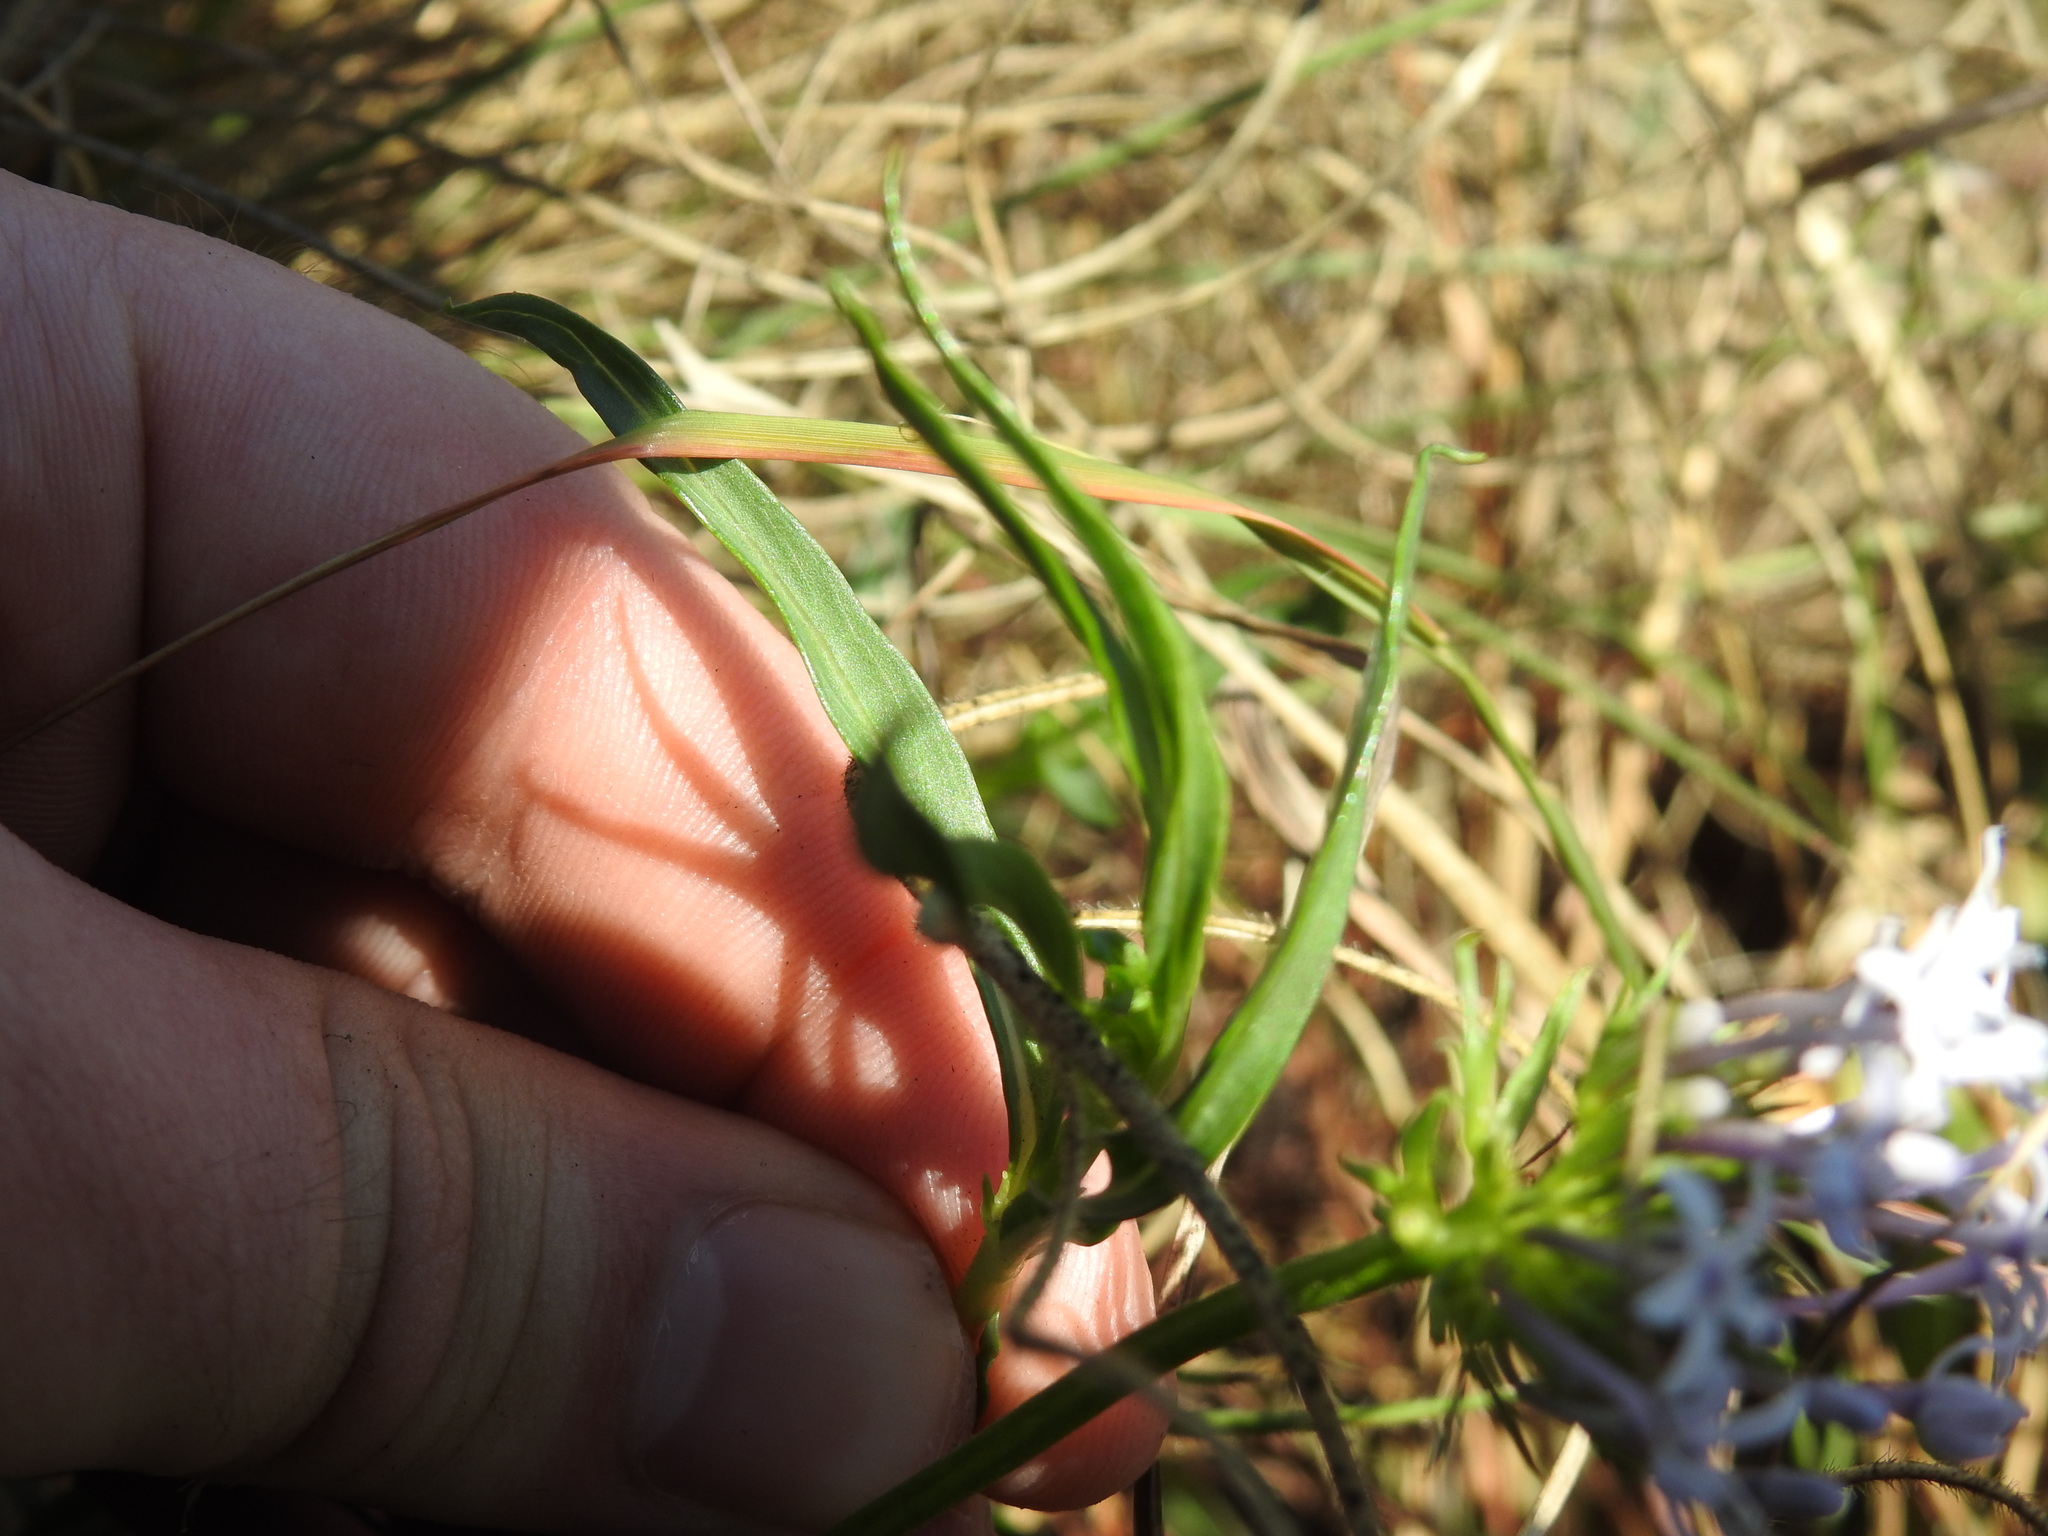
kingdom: Plantae
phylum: Tracheophyta
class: Magnoliopsida
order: Gentianales
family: Rubiaceae
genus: Pentanisia
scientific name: Pentanisia angustifolia
